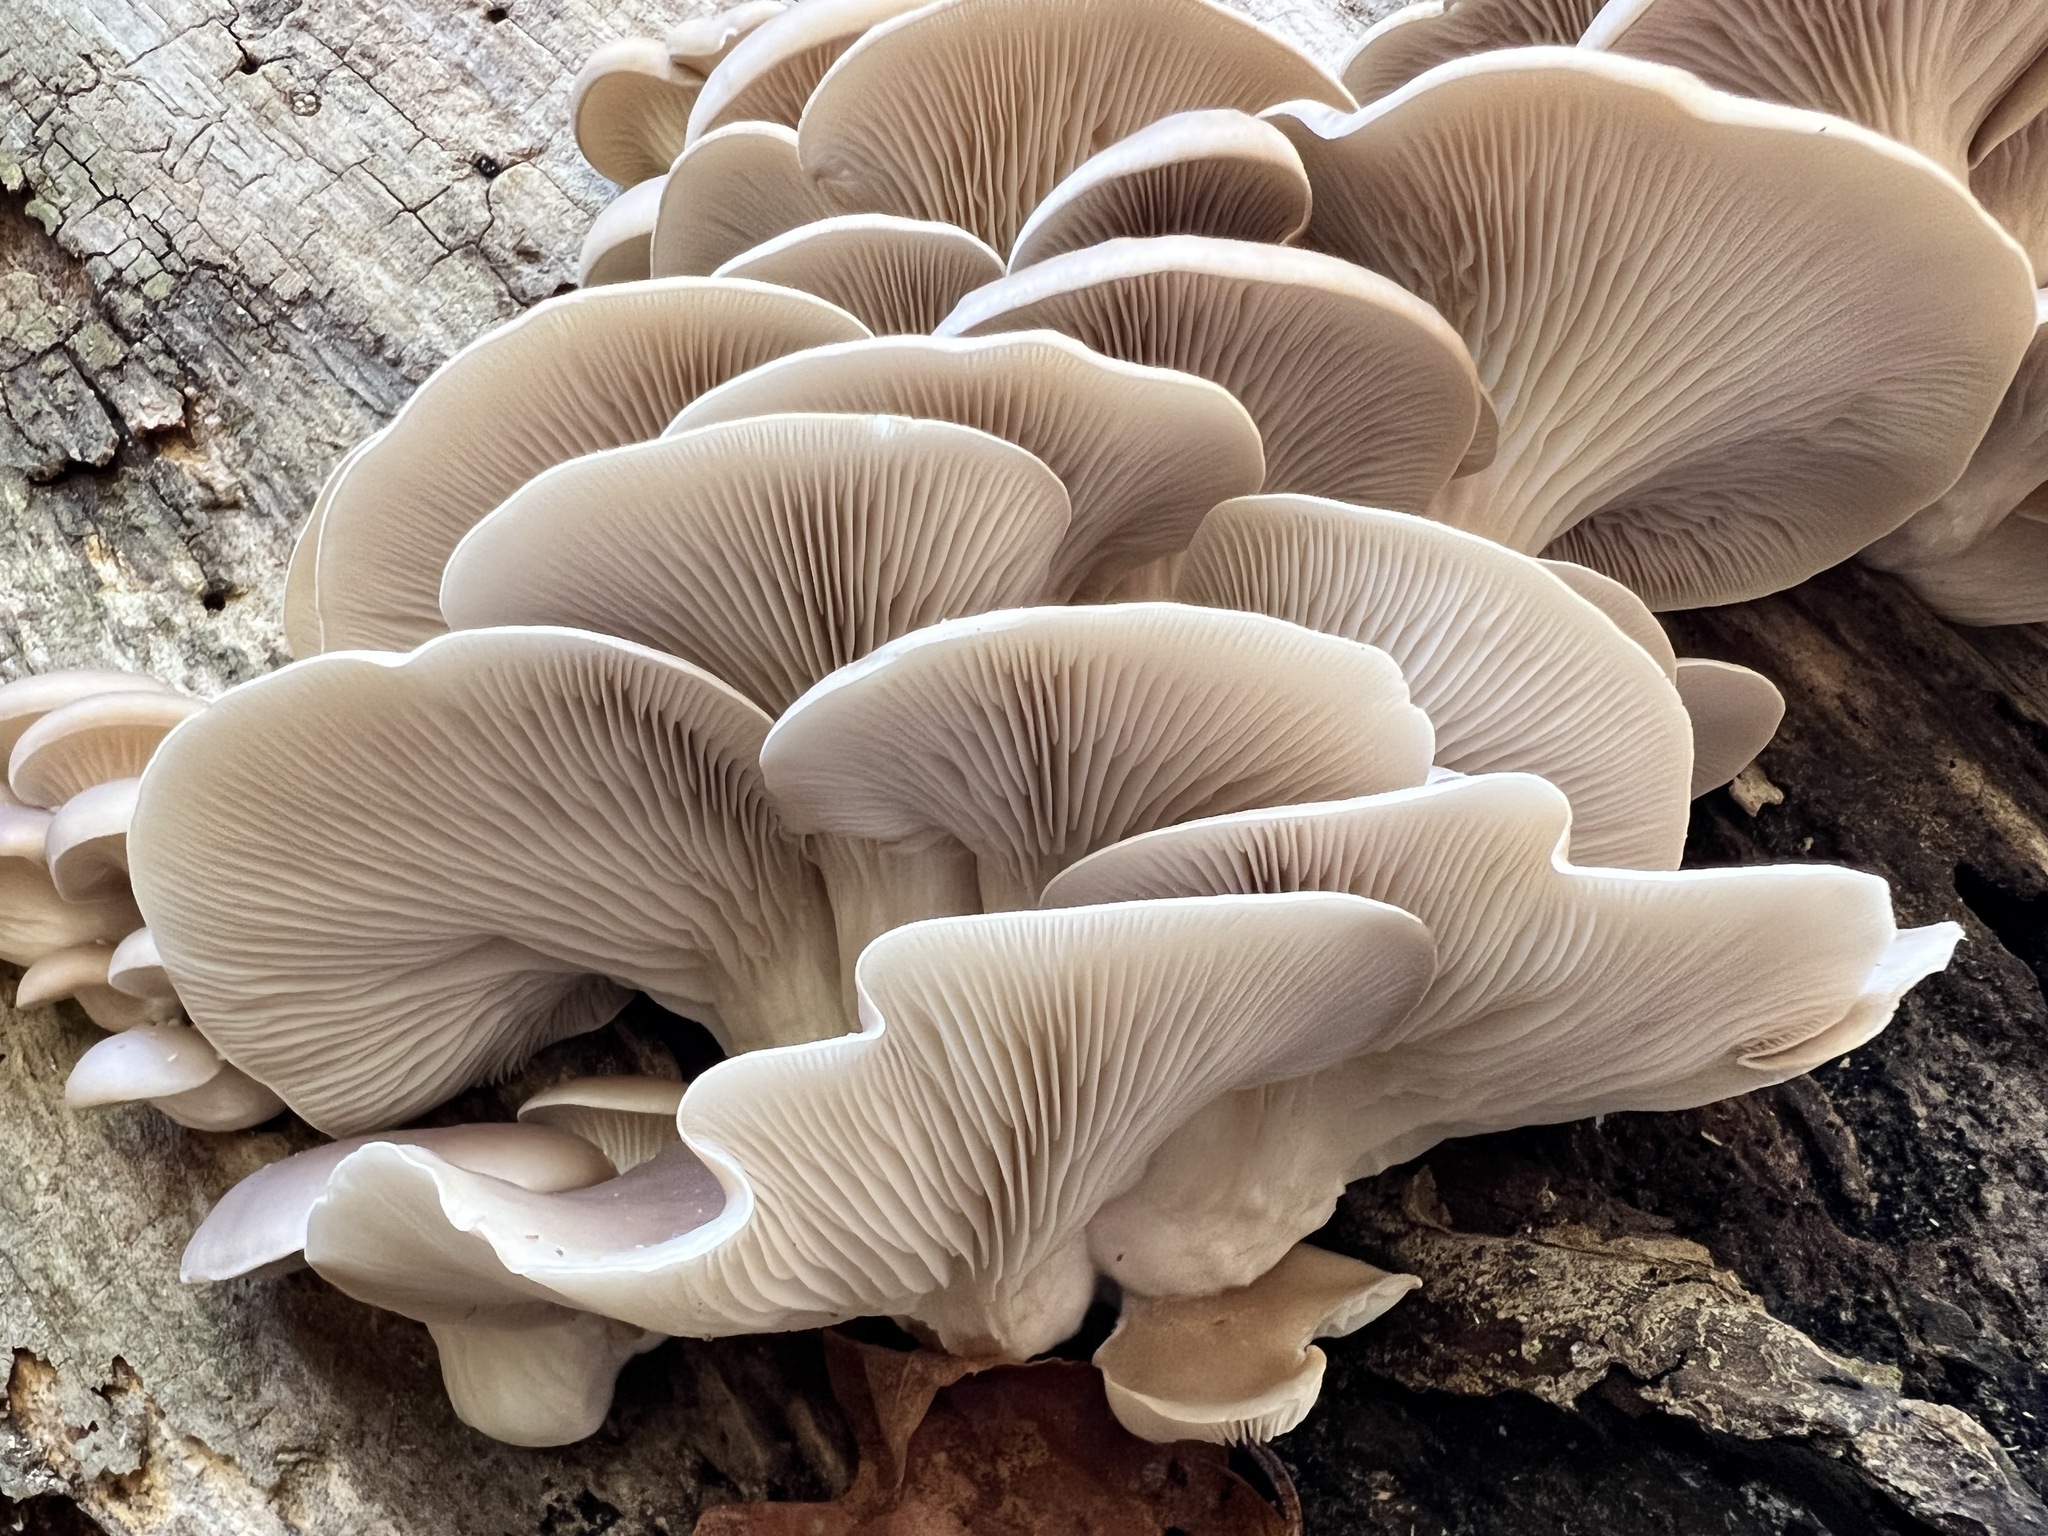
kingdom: Fungi
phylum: Basidiomycota
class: Agaricomycetes
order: Agaricales
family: Pleurotaceae
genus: Pleurotus
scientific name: Pleurotus ostreatus
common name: Oyster mushroom
